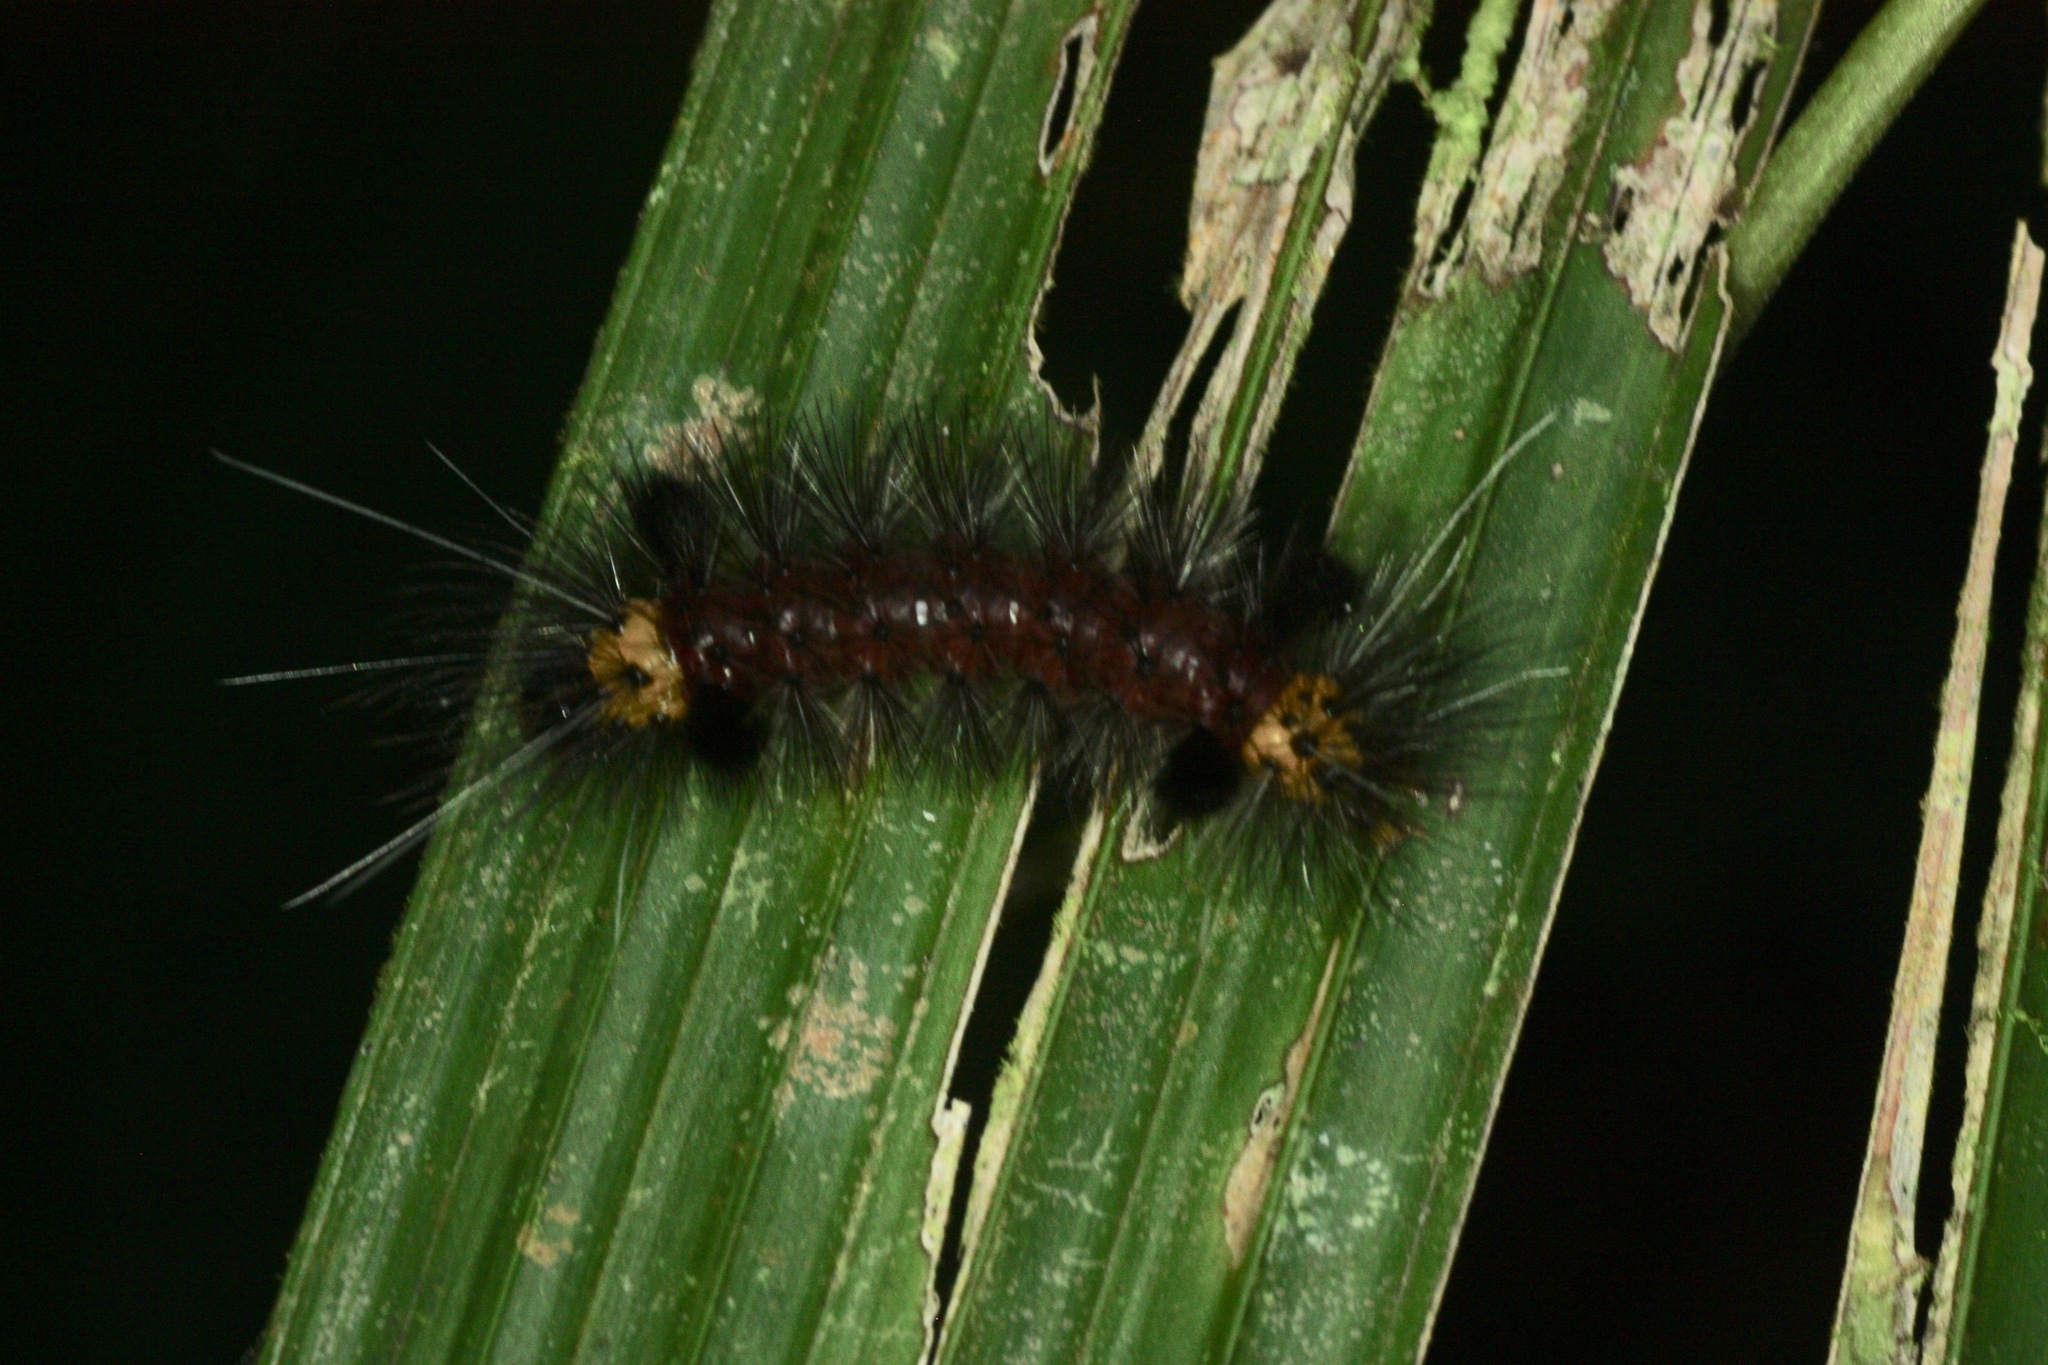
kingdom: Animalia
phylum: Arthropoda
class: Insecta
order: Lepidoptera
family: Erebidae
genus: Cosmosoma
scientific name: Cosmosoma zurcheri
